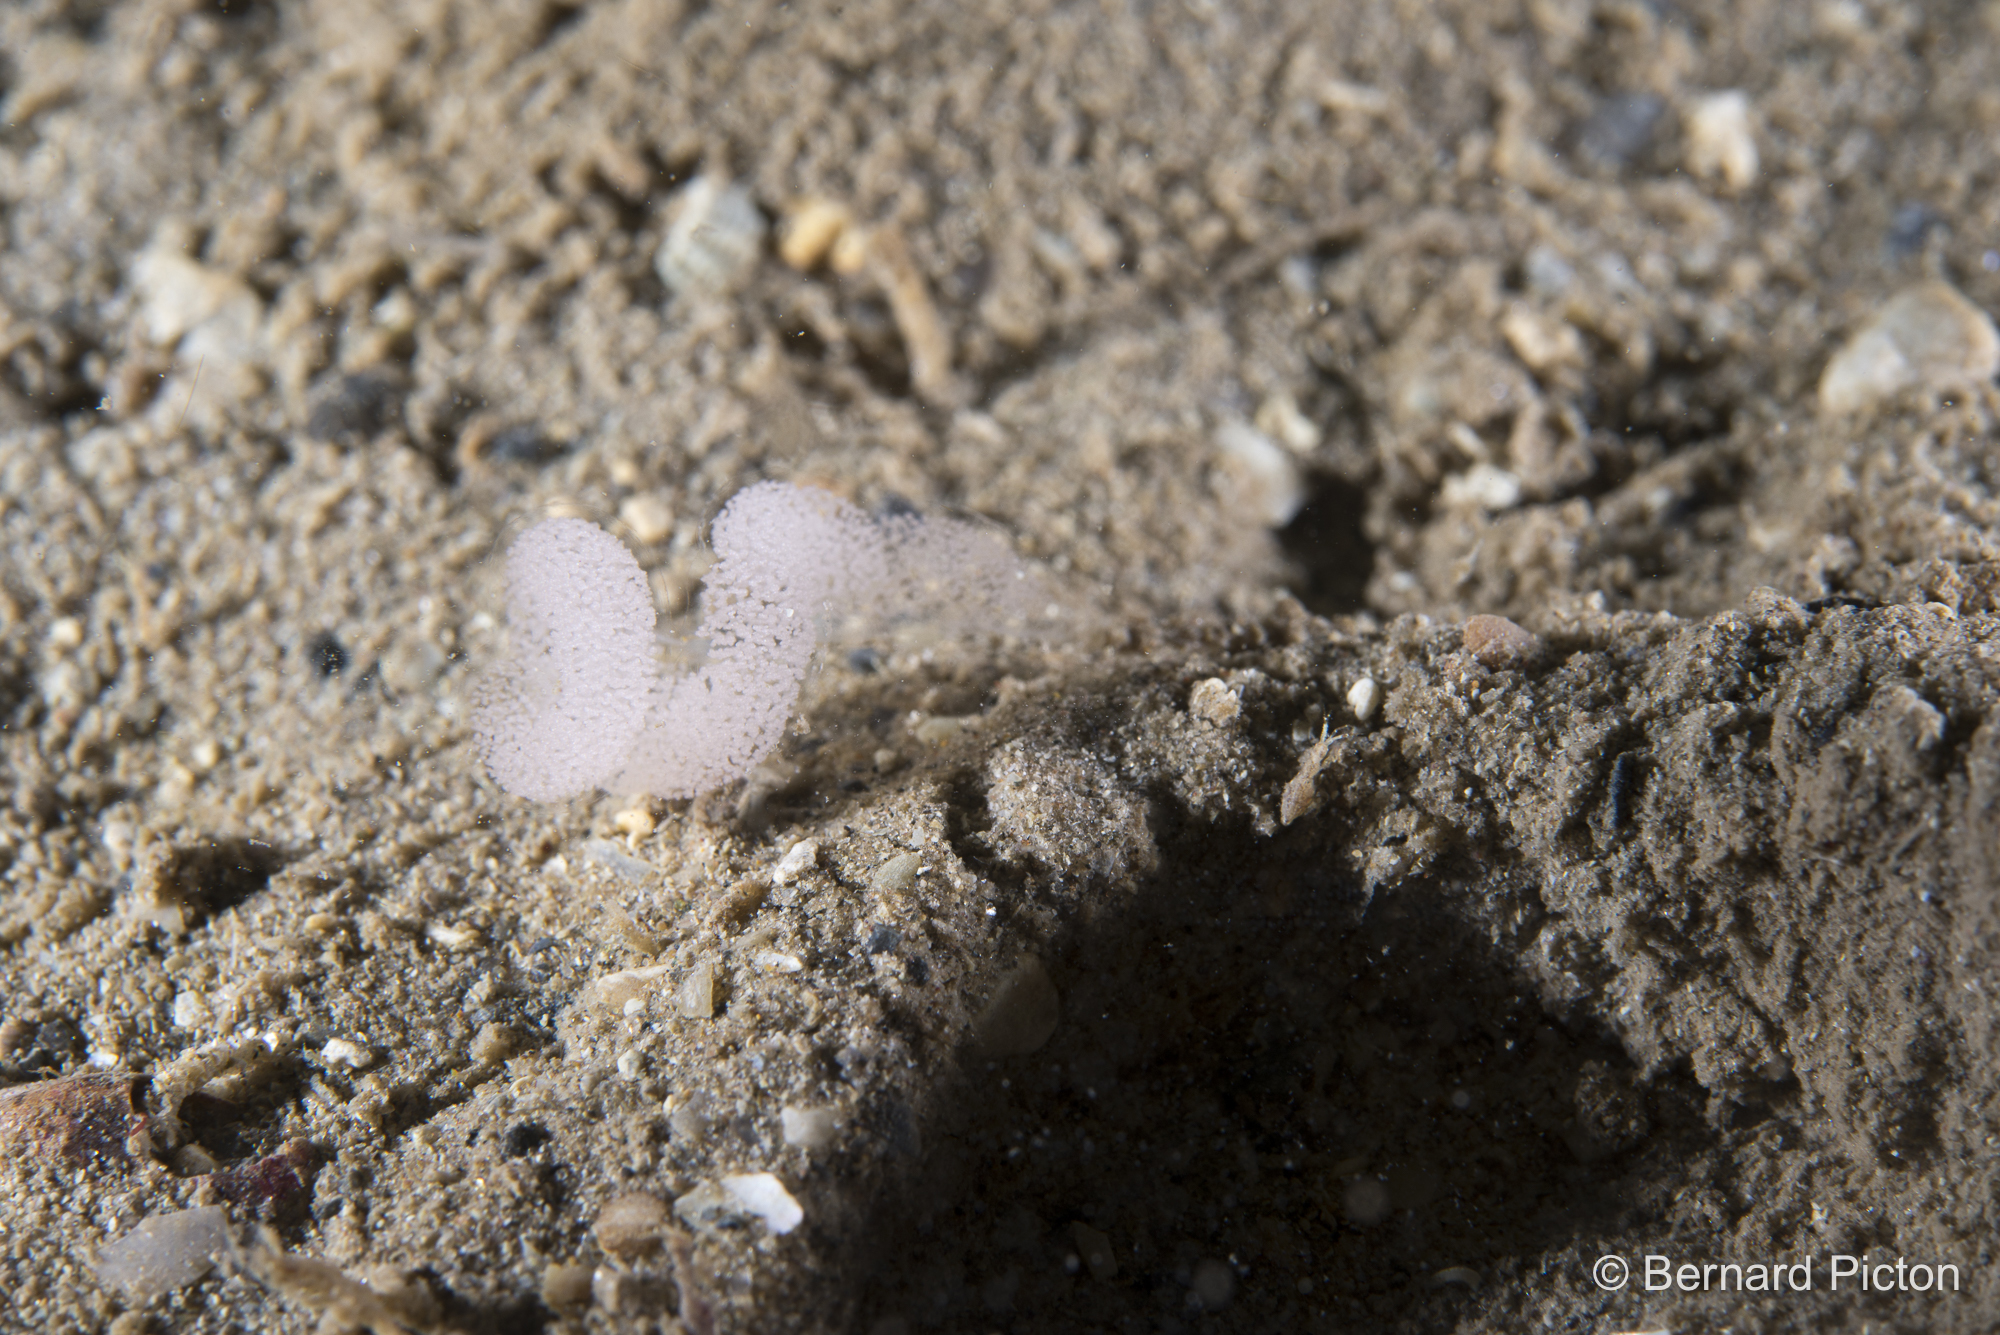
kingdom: Animalia
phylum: Mollusca
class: Gastropoda
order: Nudibranchia
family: Cumanotidae
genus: Cumanotus
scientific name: Cumanotus beaumonti
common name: Polyp aeolis
